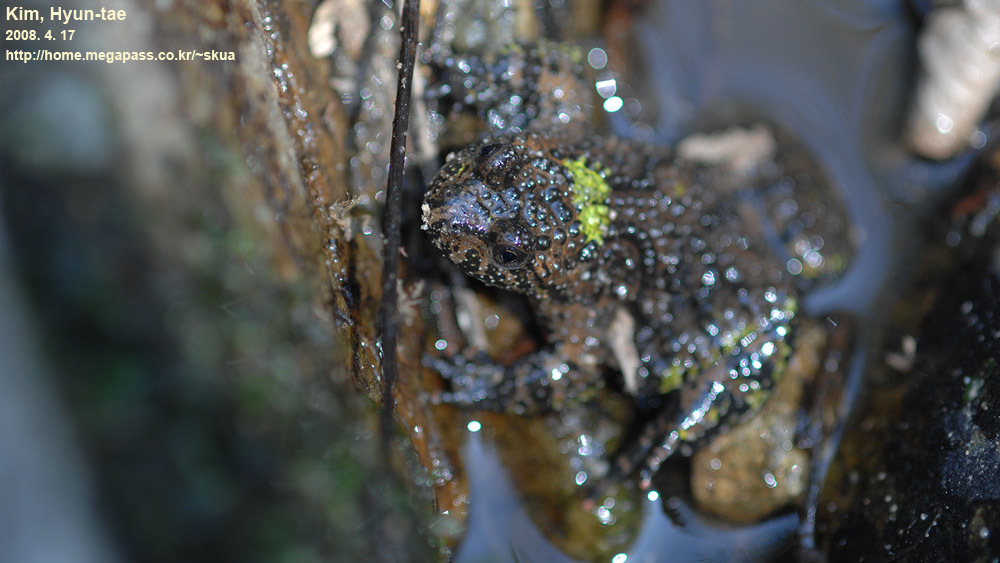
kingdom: Animalia
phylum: Chordata
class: Amphibia
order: Anura
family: Bombinatoridae
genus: Bombina
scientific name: Bombina orientalis
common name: Oriental firebelly toad
